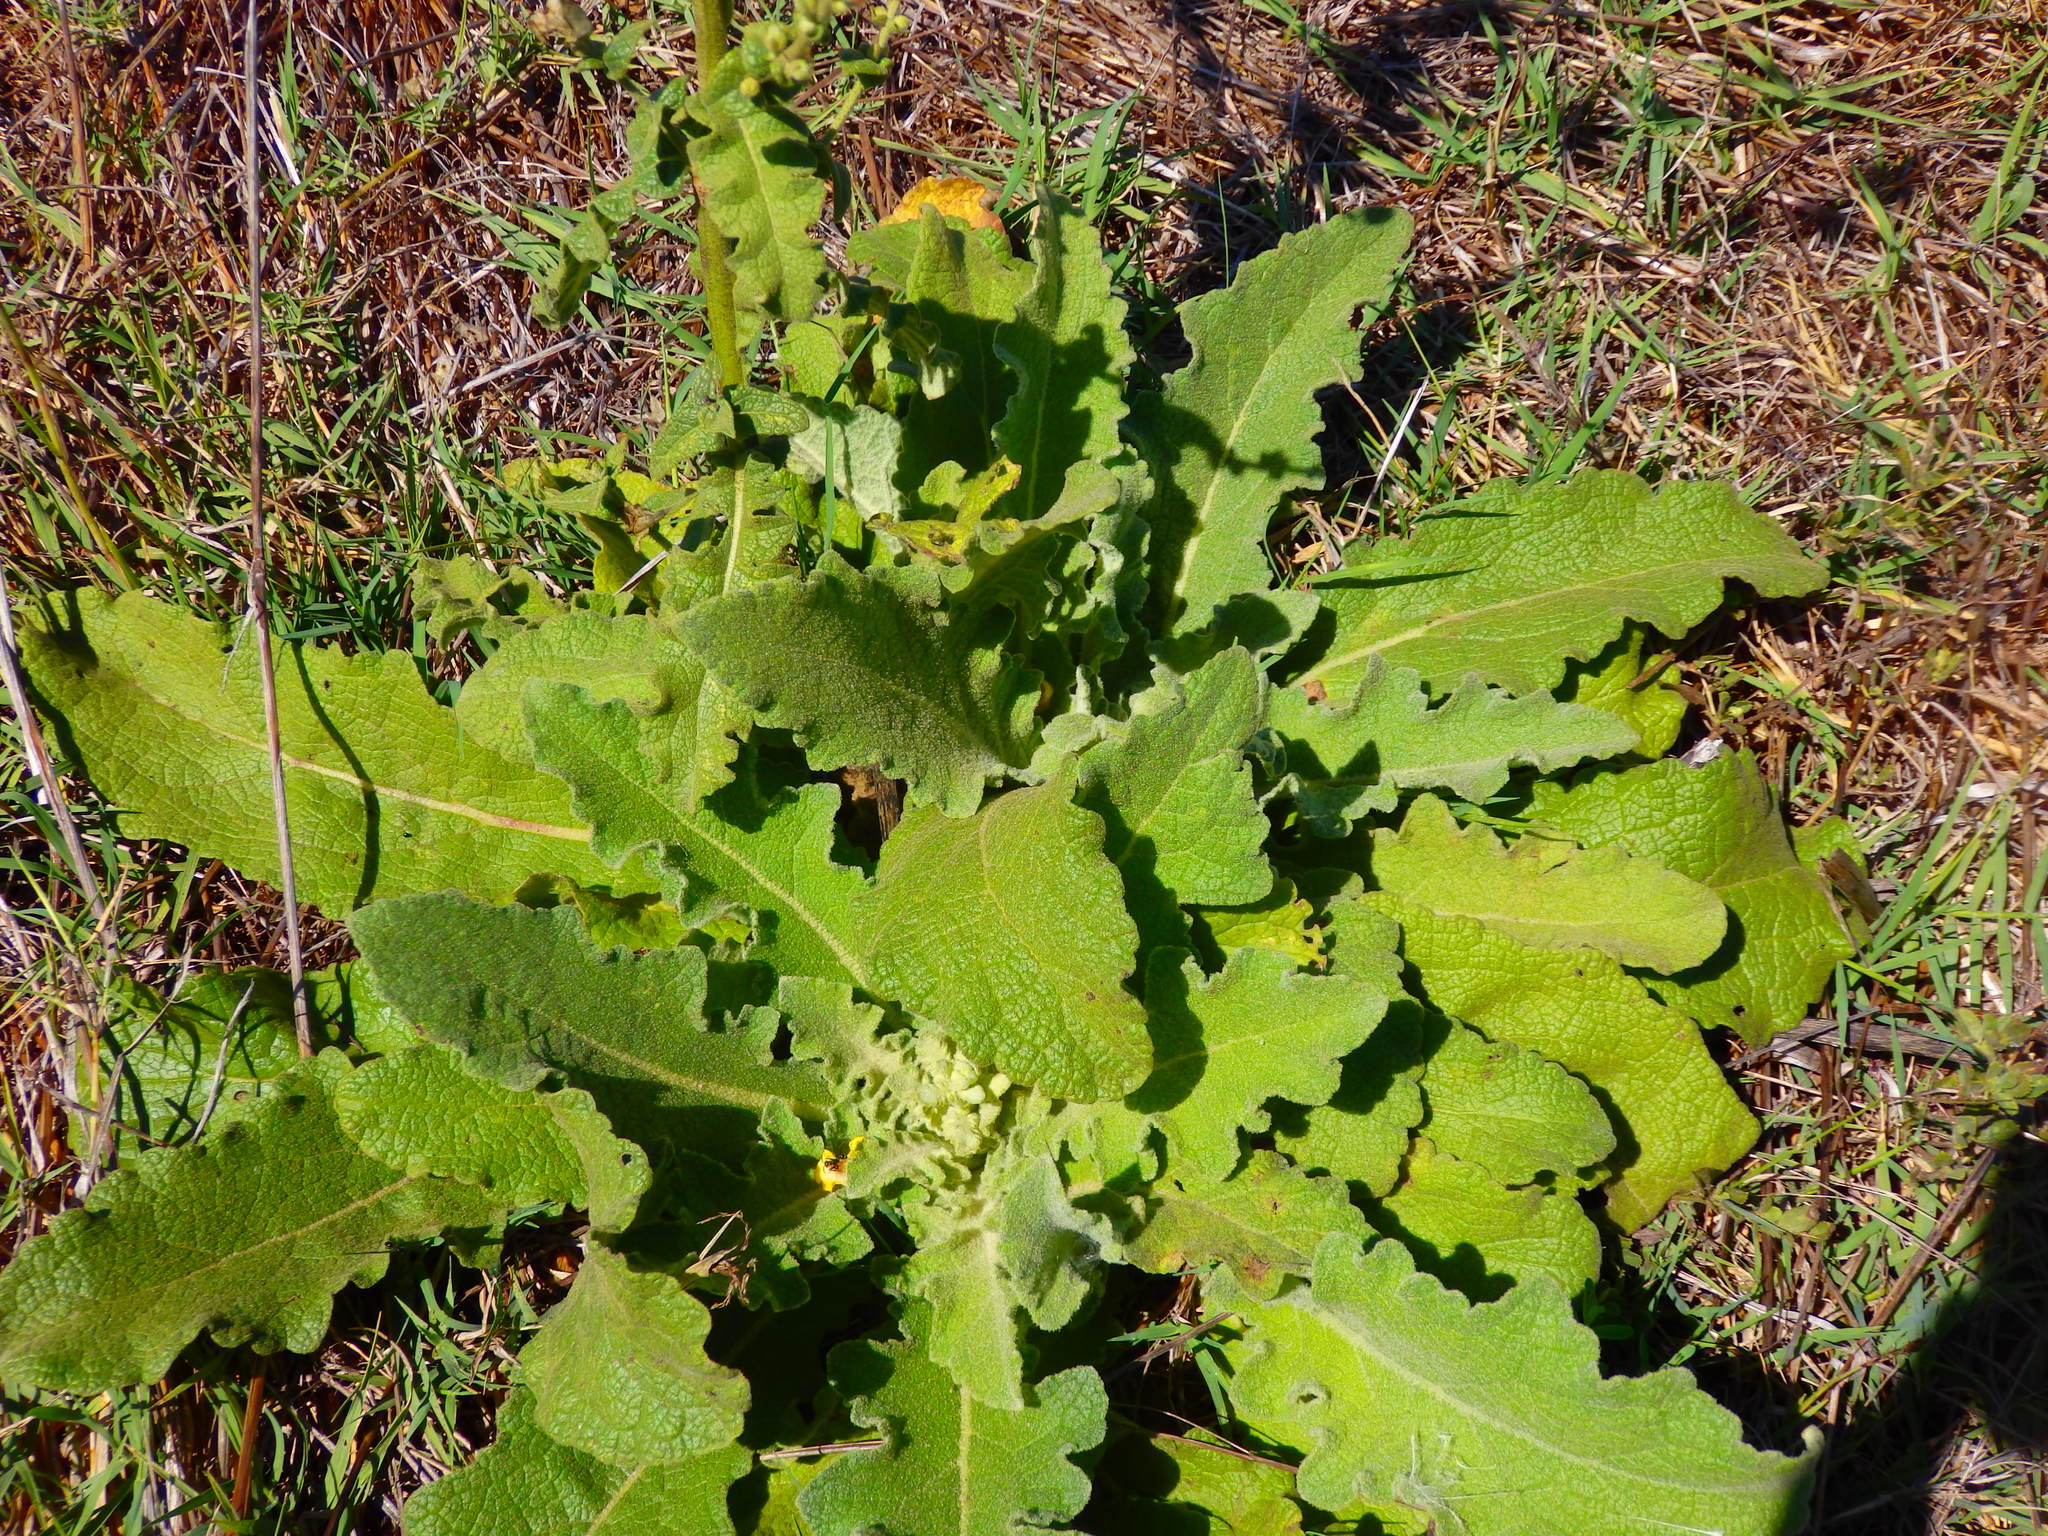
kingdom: Plantae
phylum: Tracheophyta
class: Magnoliopsida
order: Lamiales
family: Scrophulariaceae
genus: Verbascum
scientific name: Verbascum sinuatum
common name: Wavyleaf mullein
